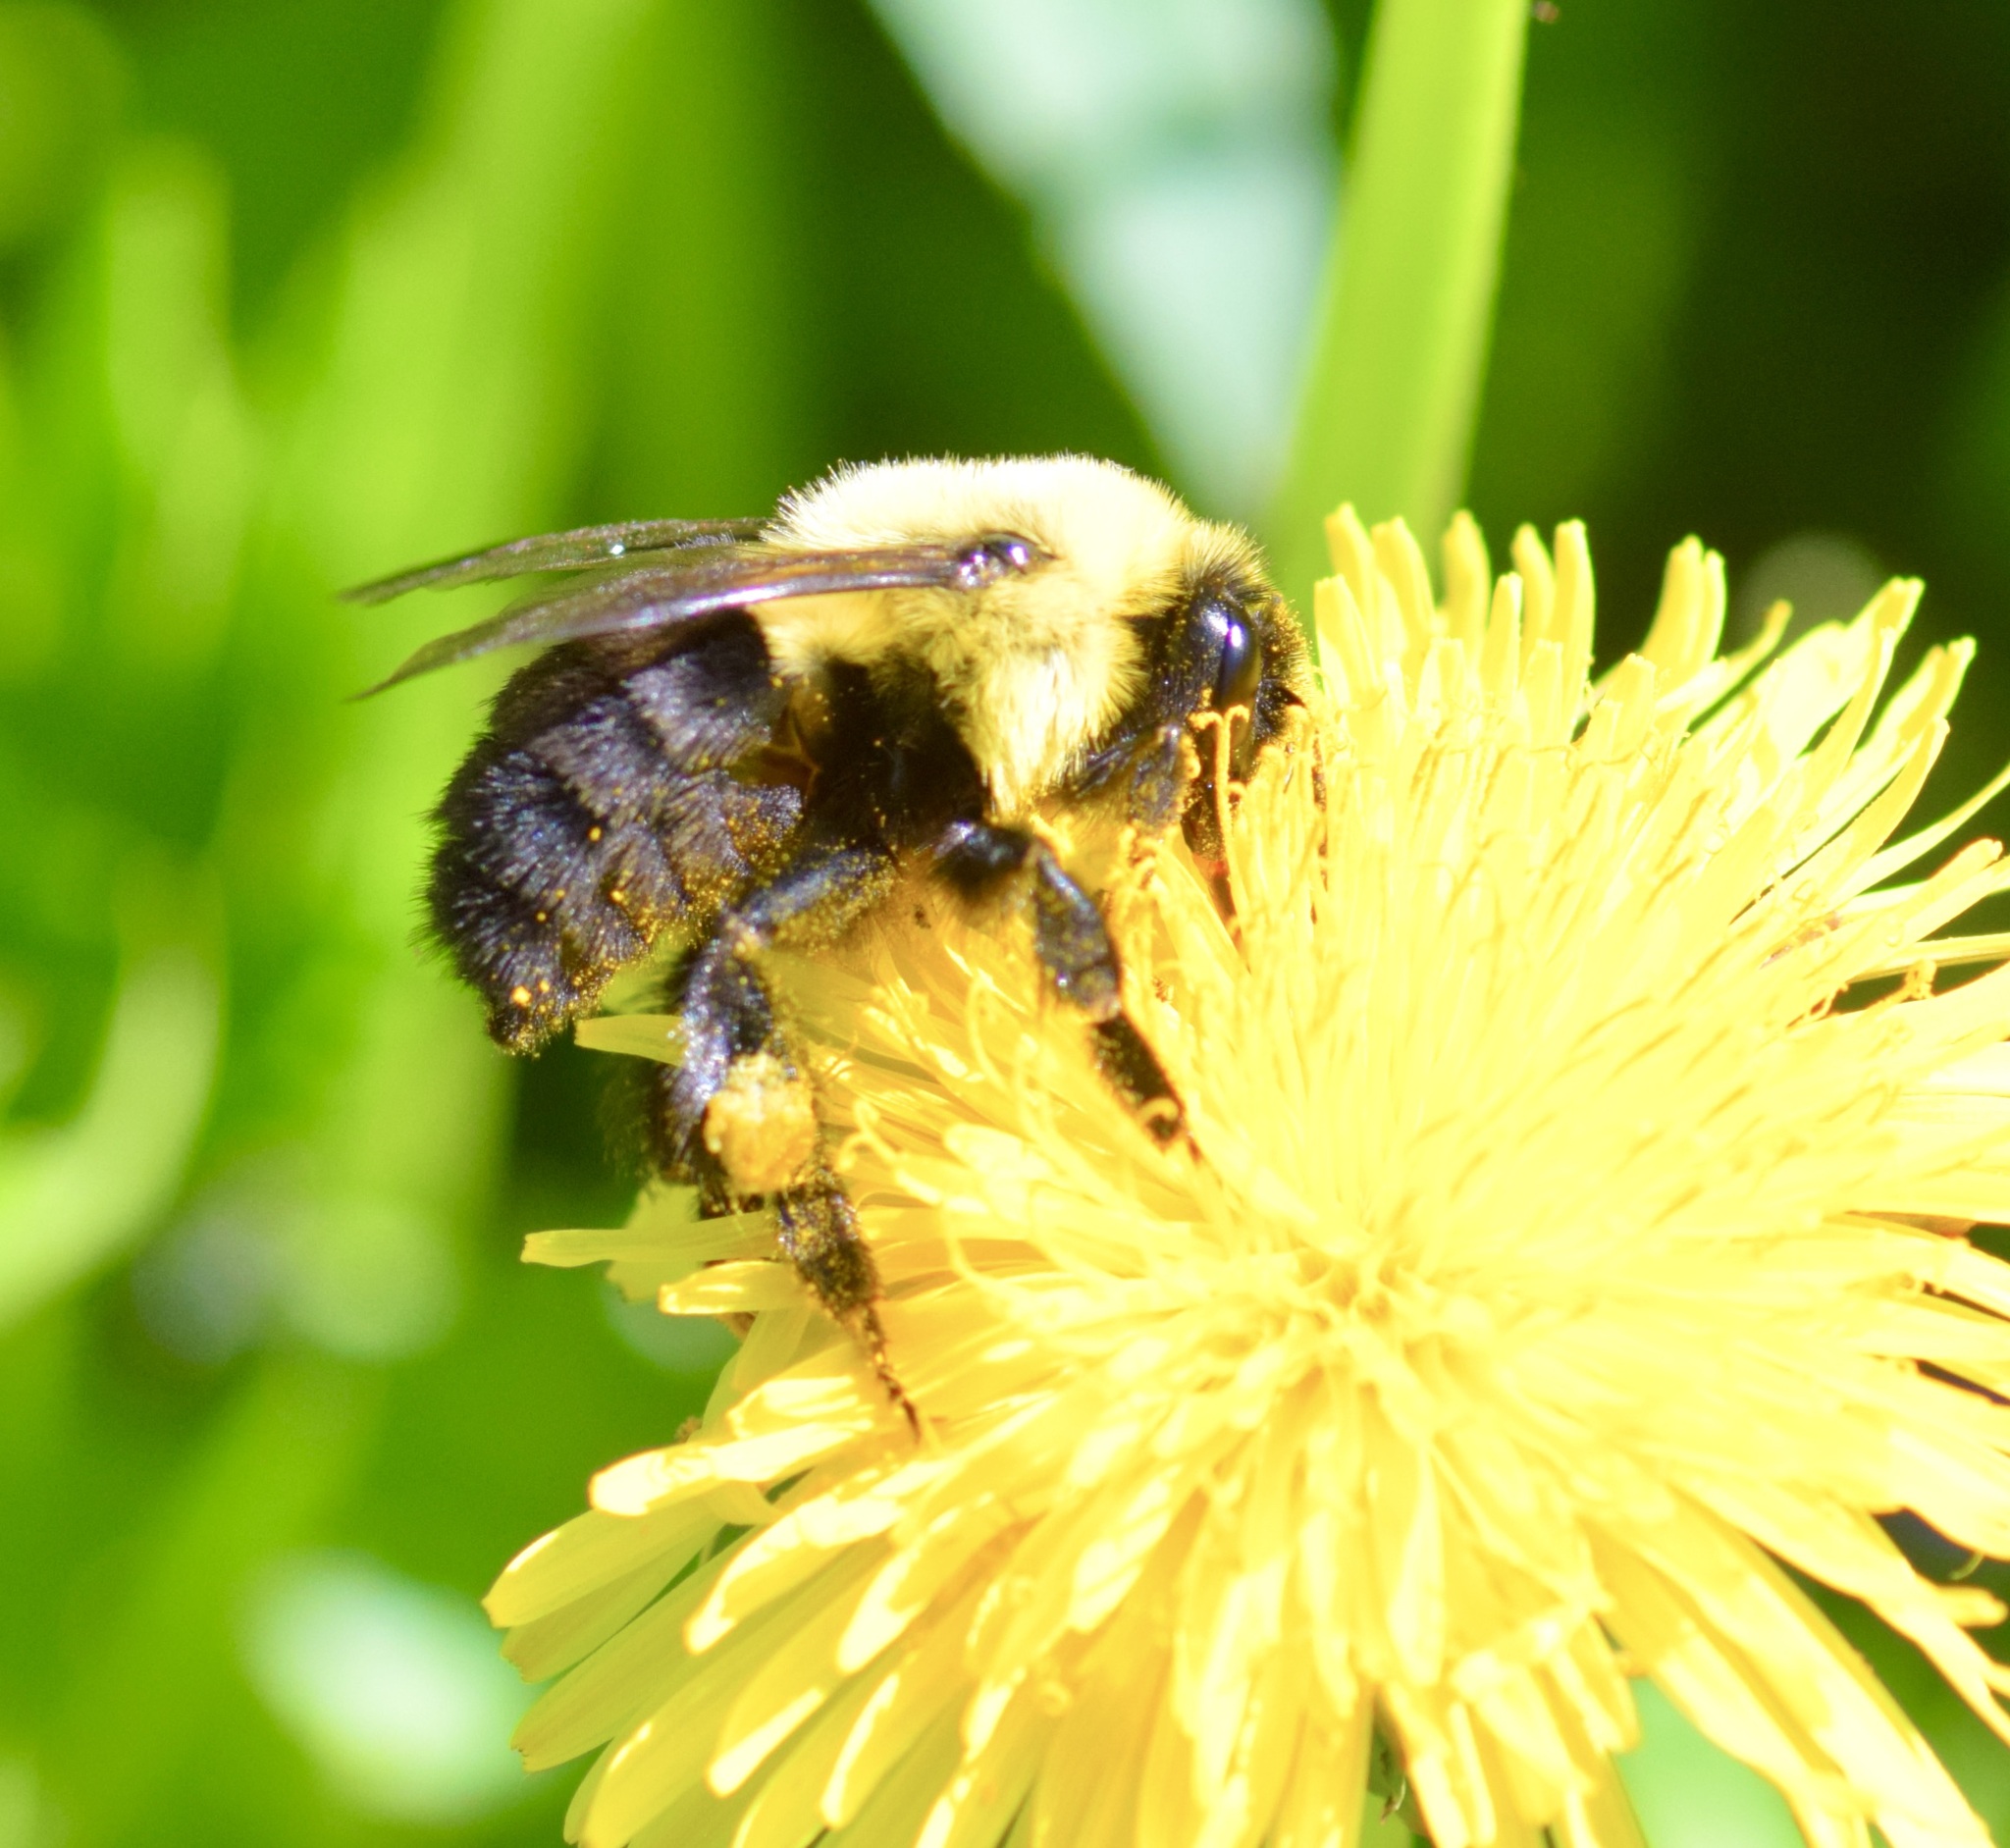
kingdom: Animalia
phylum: Arthropoda
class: Insecta
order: Hymenoptera
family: Apidae
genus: Bombus
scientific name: Bombus impatiens
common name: Common eastern bumble bee
